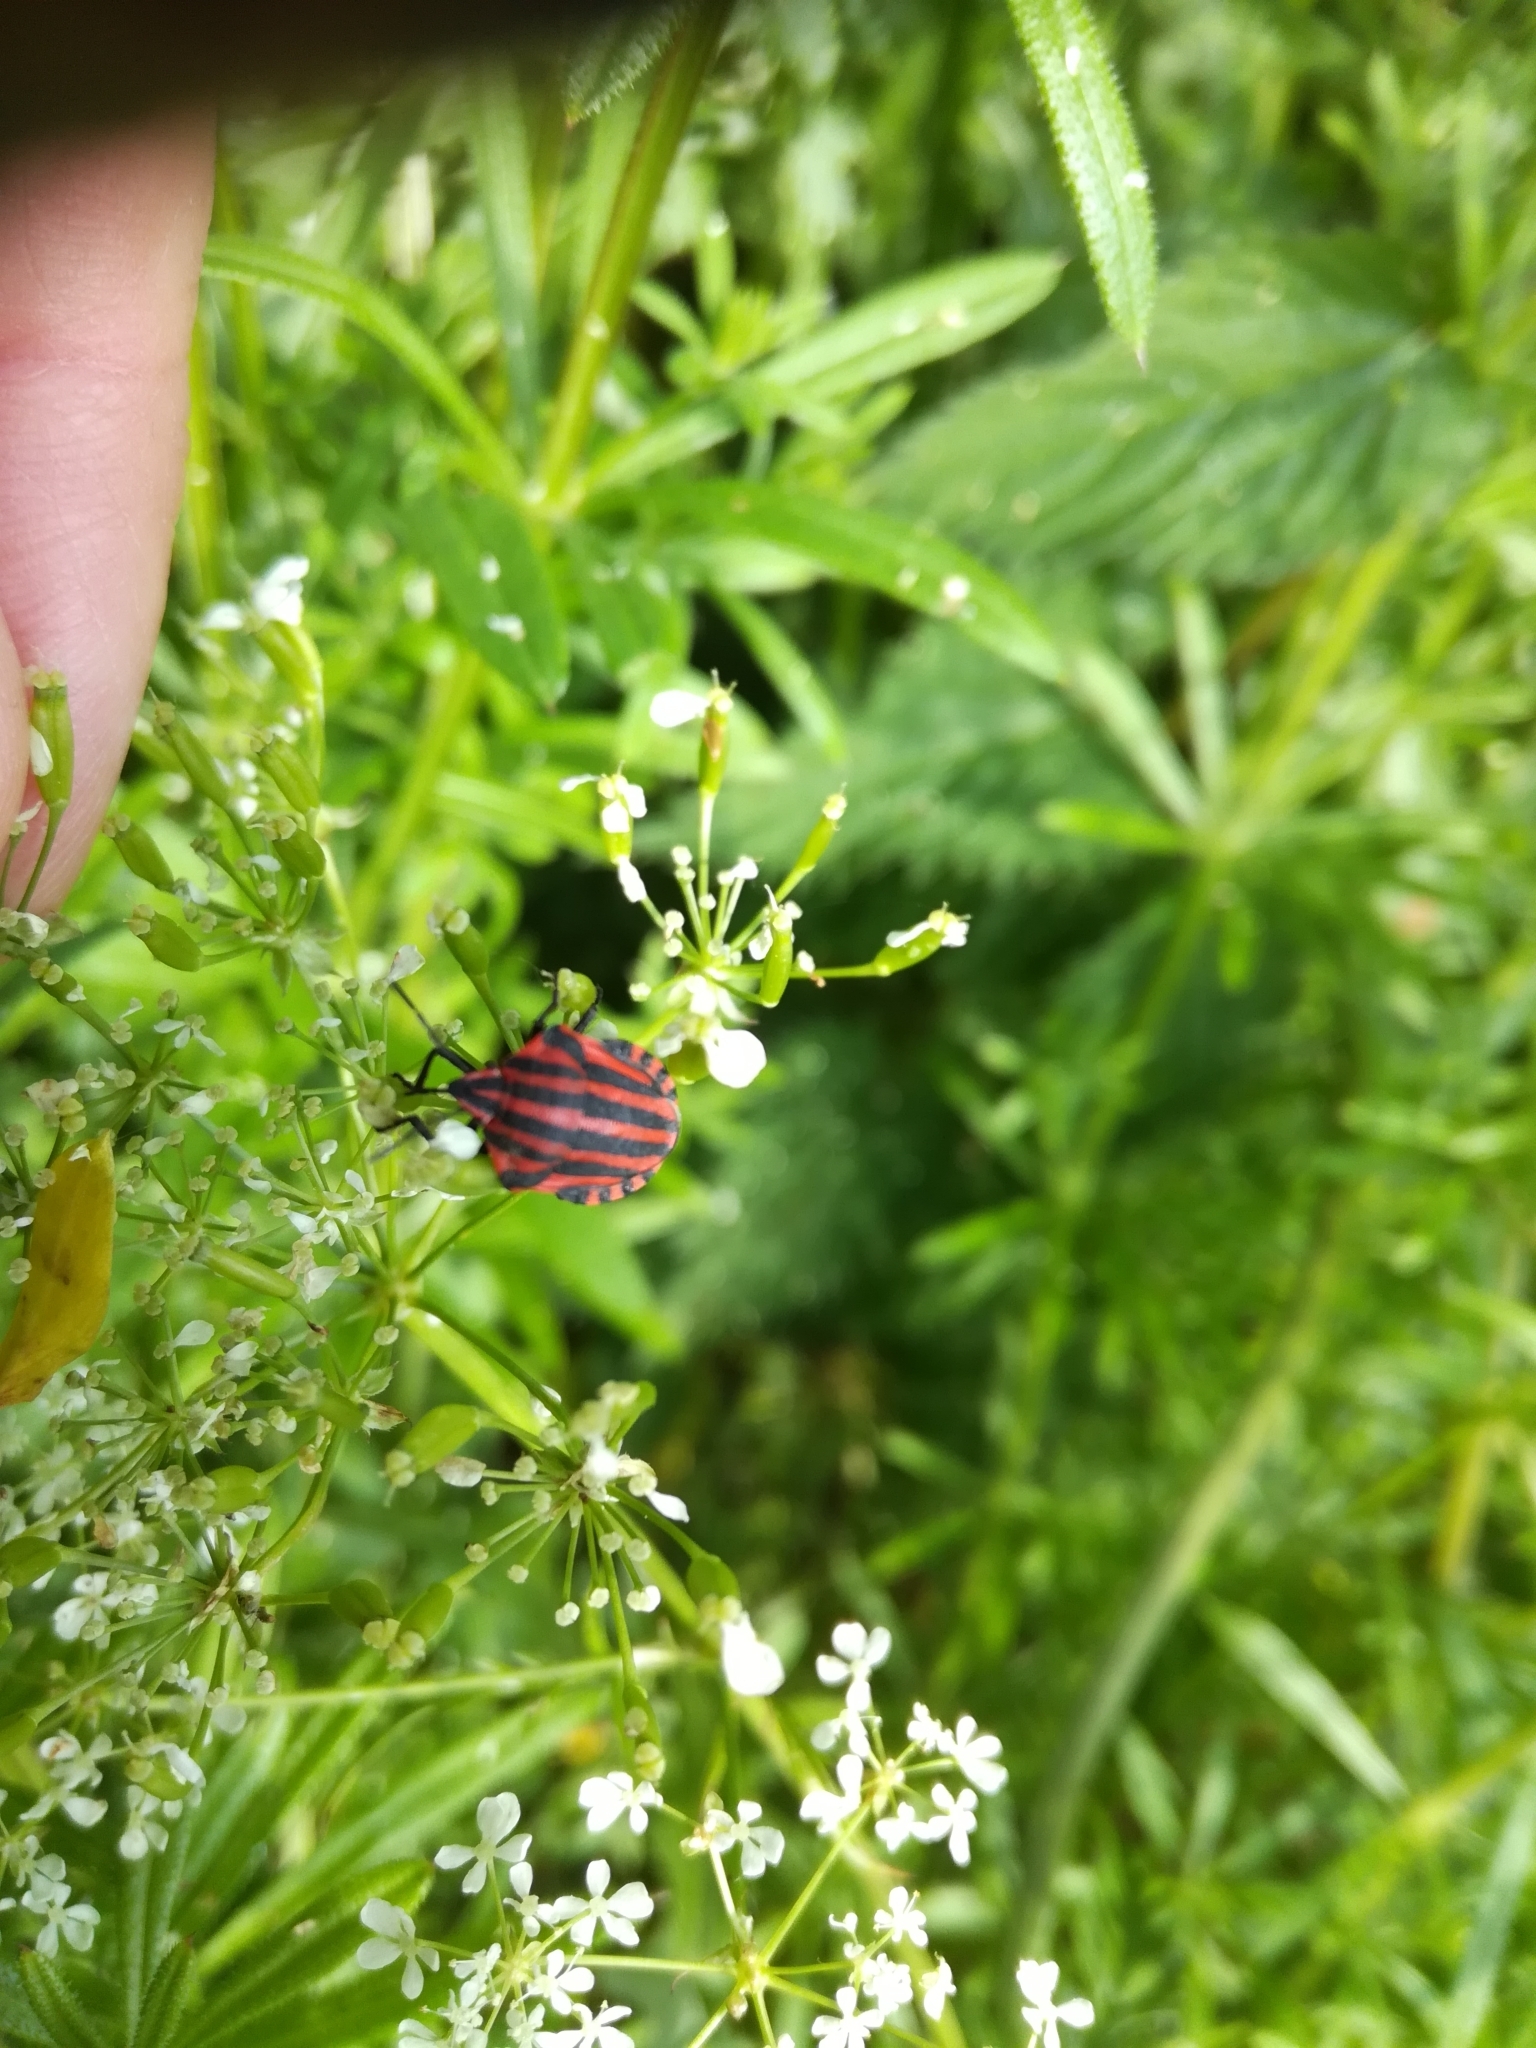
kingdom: Animalia
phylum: Arthropoda
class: Insecta
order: Hemiptera
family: Pentatomidae
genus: Graphosoma
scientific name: Graphosoma italicum
